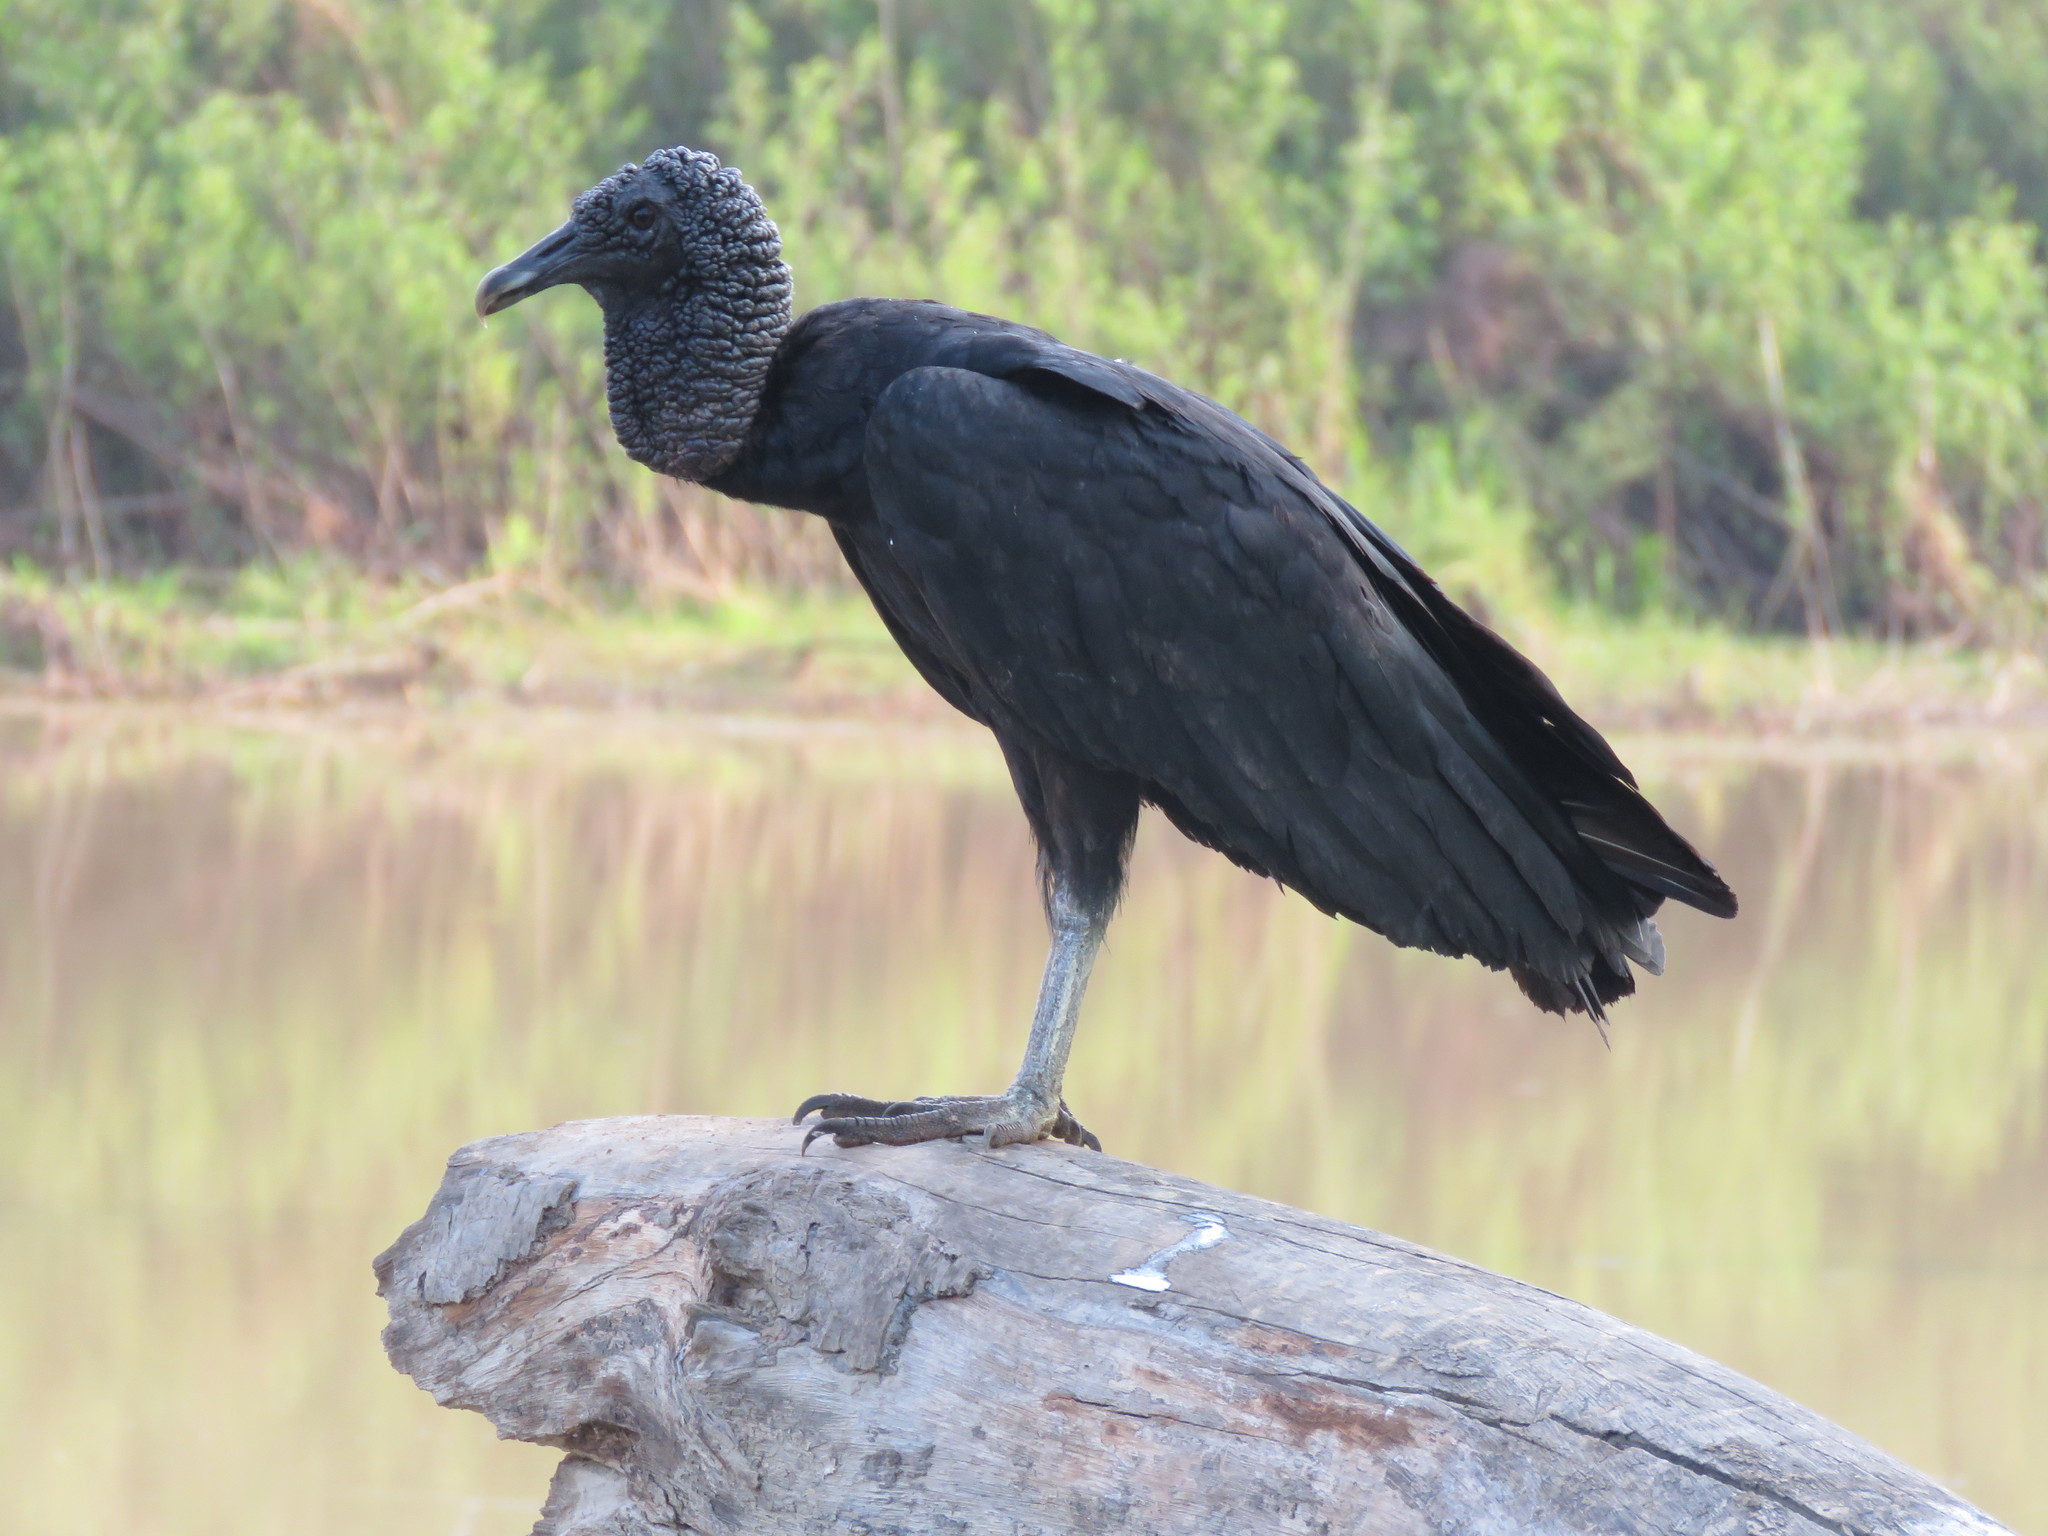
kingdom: Animalia
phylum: Chordata
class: Aves
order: Accipitriformes
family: Cathartidae
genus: Coragyps
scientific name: Coragyps atratus
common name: Black vulture
